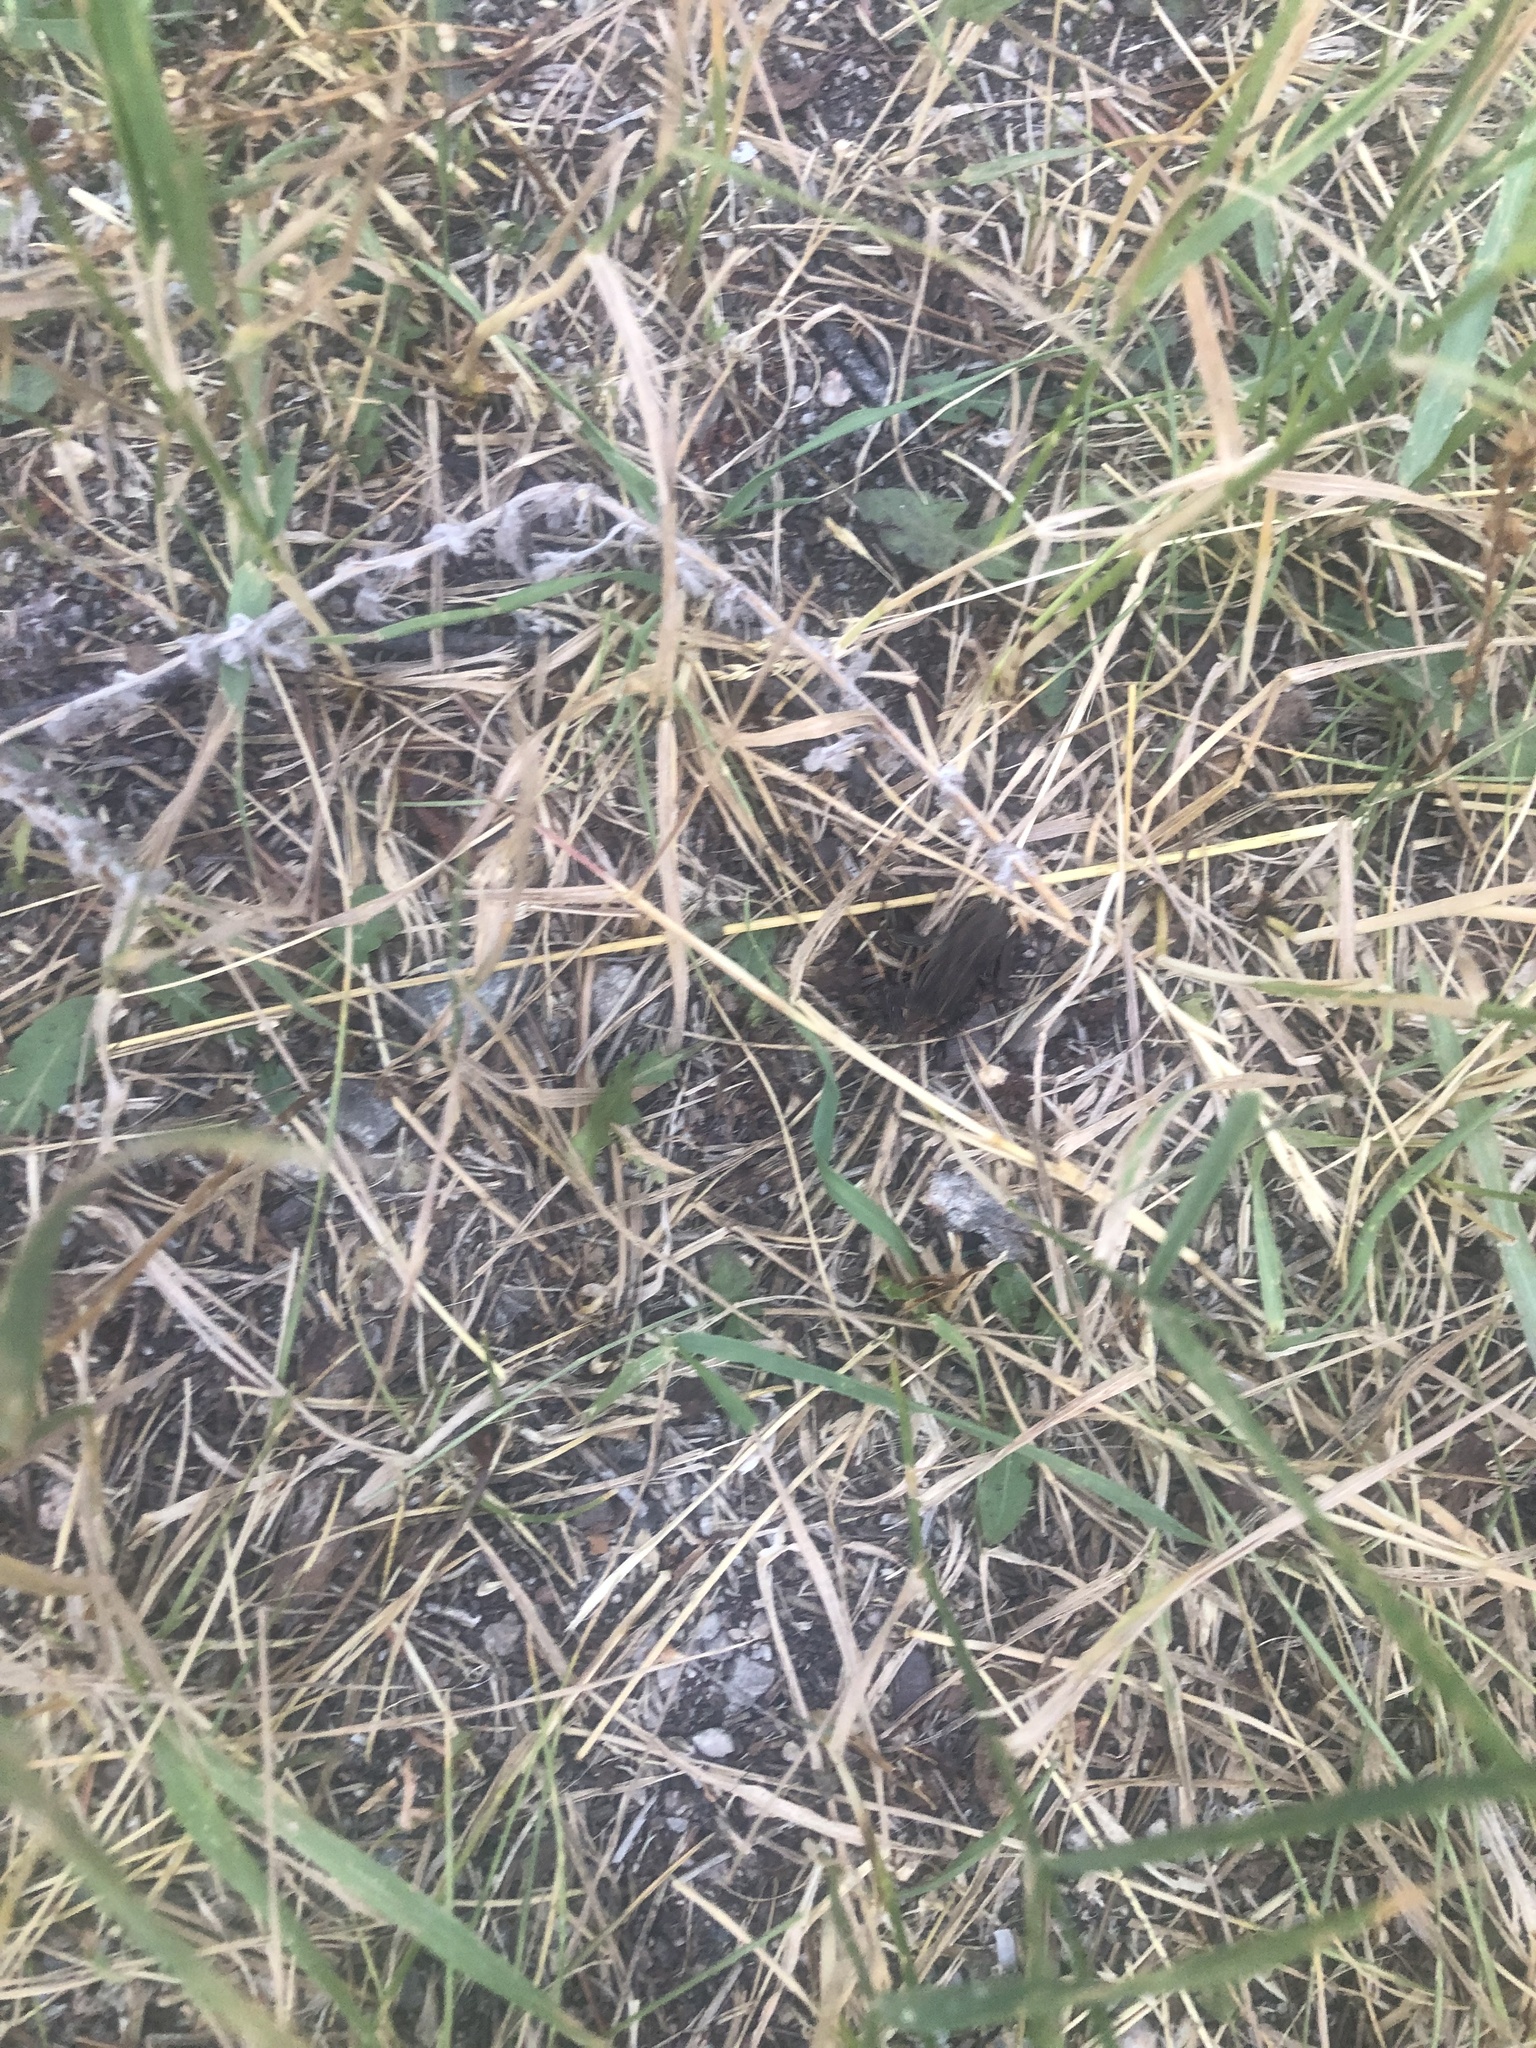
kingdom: Animalia
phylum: Chordata
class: Amphibia
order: Anura
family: Bufonidae
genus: Anaxyrus
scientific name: Anaxyrus boreas
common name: Western toad
